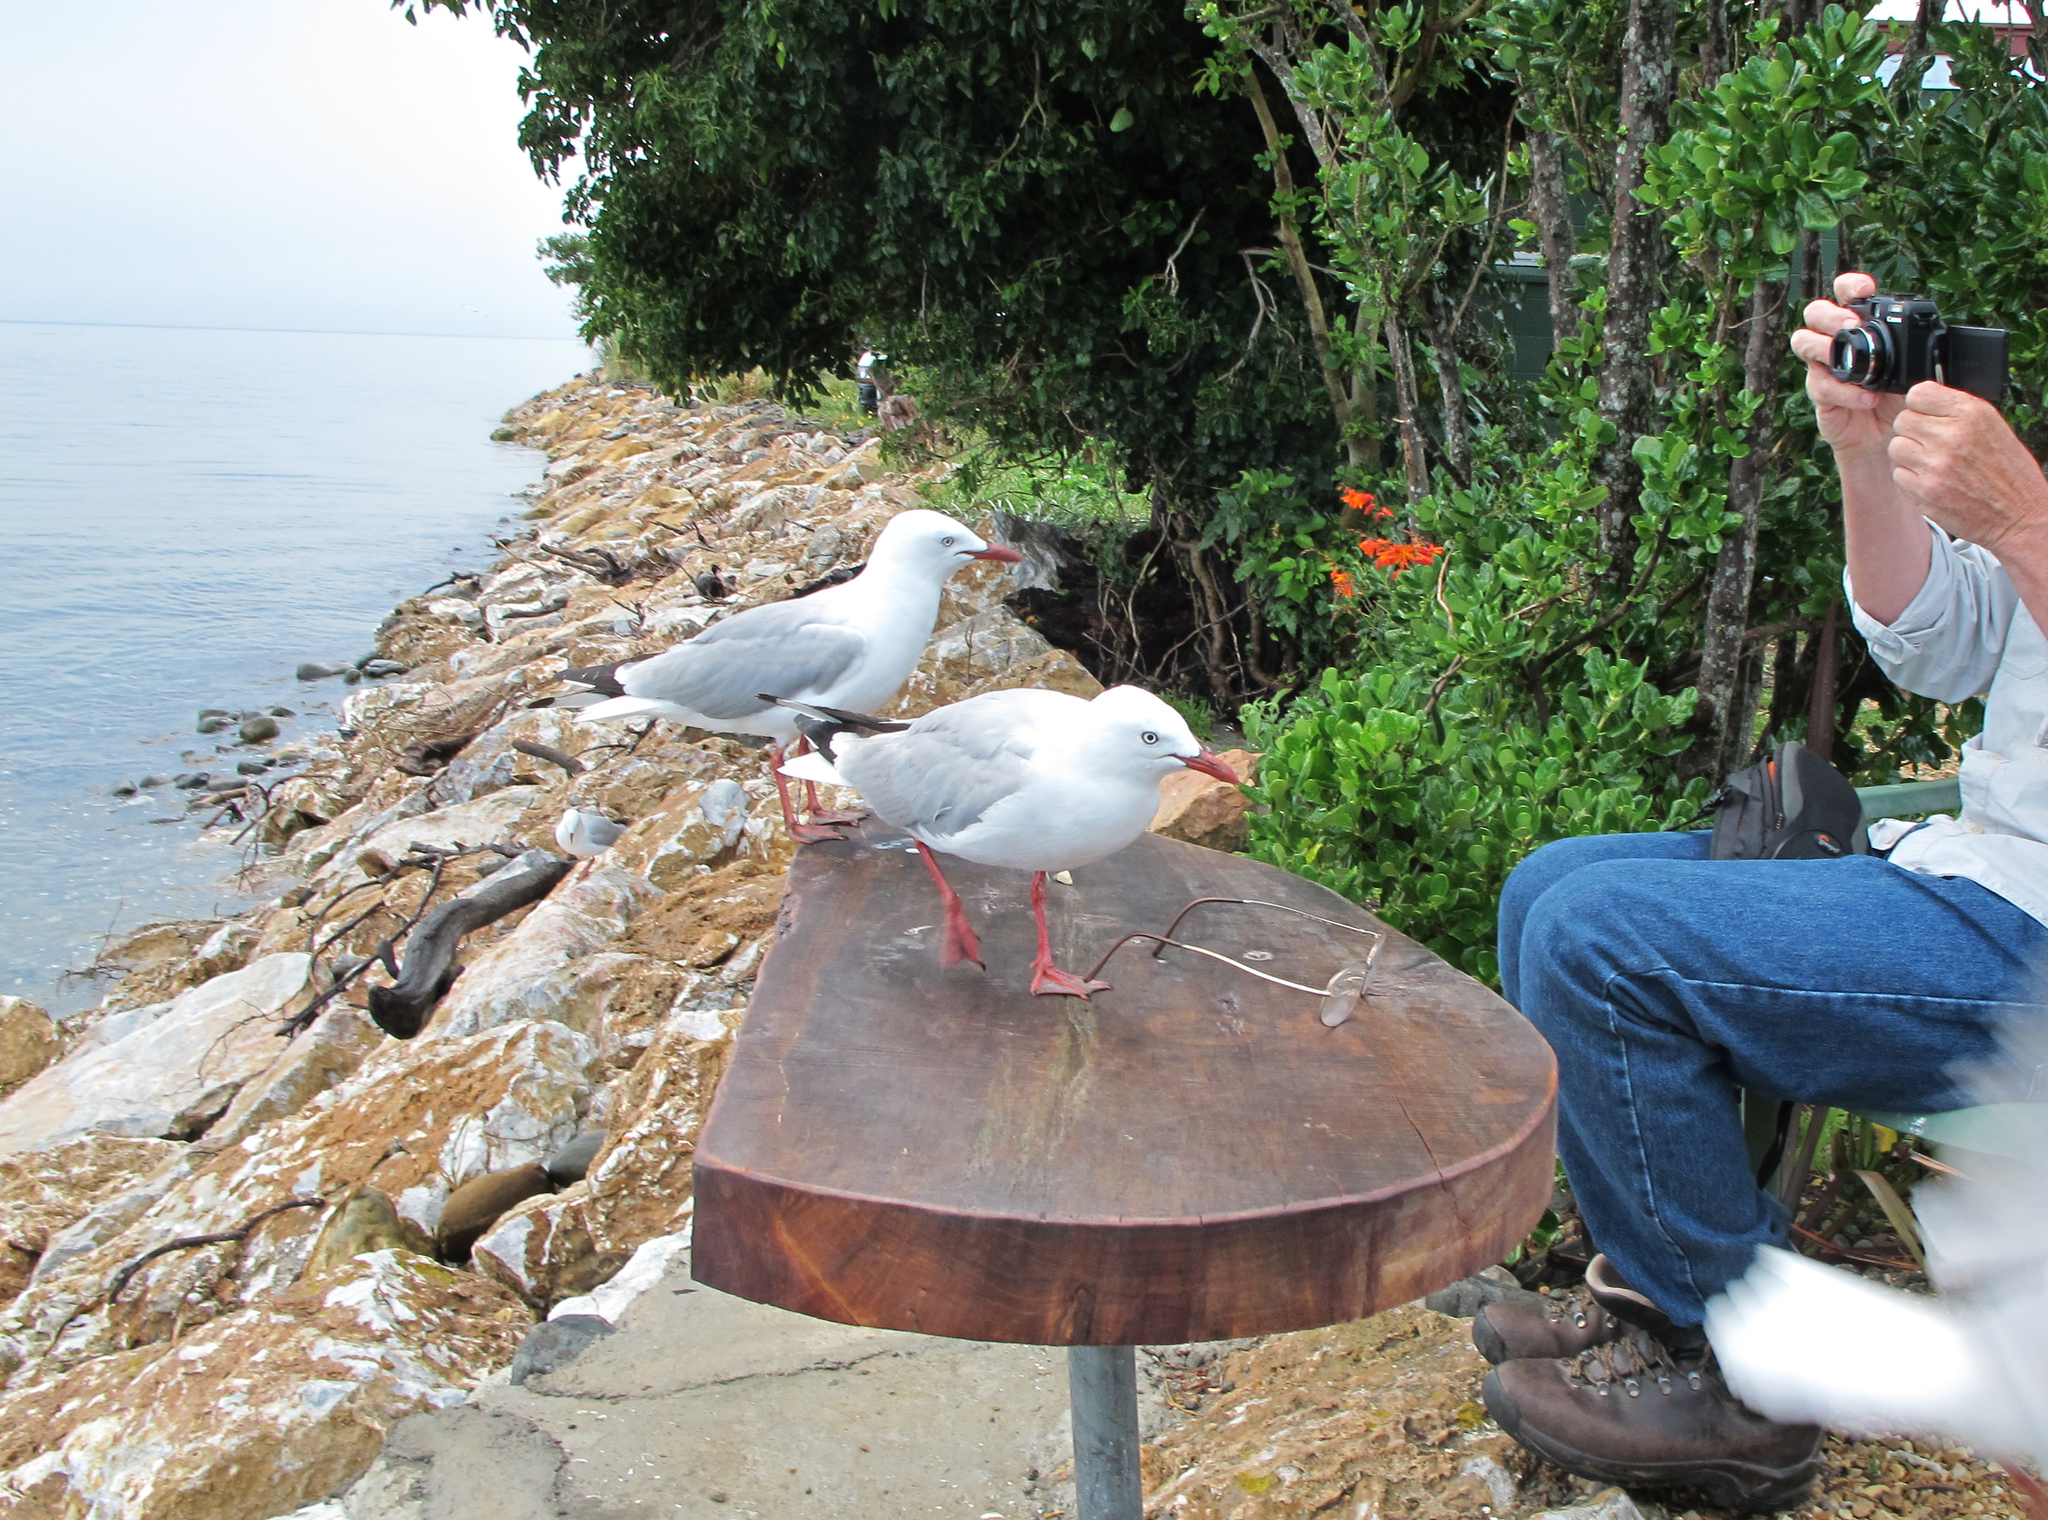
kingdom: Animalia
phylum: Chordata
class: Aves
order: Charadriiformes
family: Laridae
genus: Chroicocephalus
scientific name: Chroicocephalus novaehollandiae
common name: Silver gull
